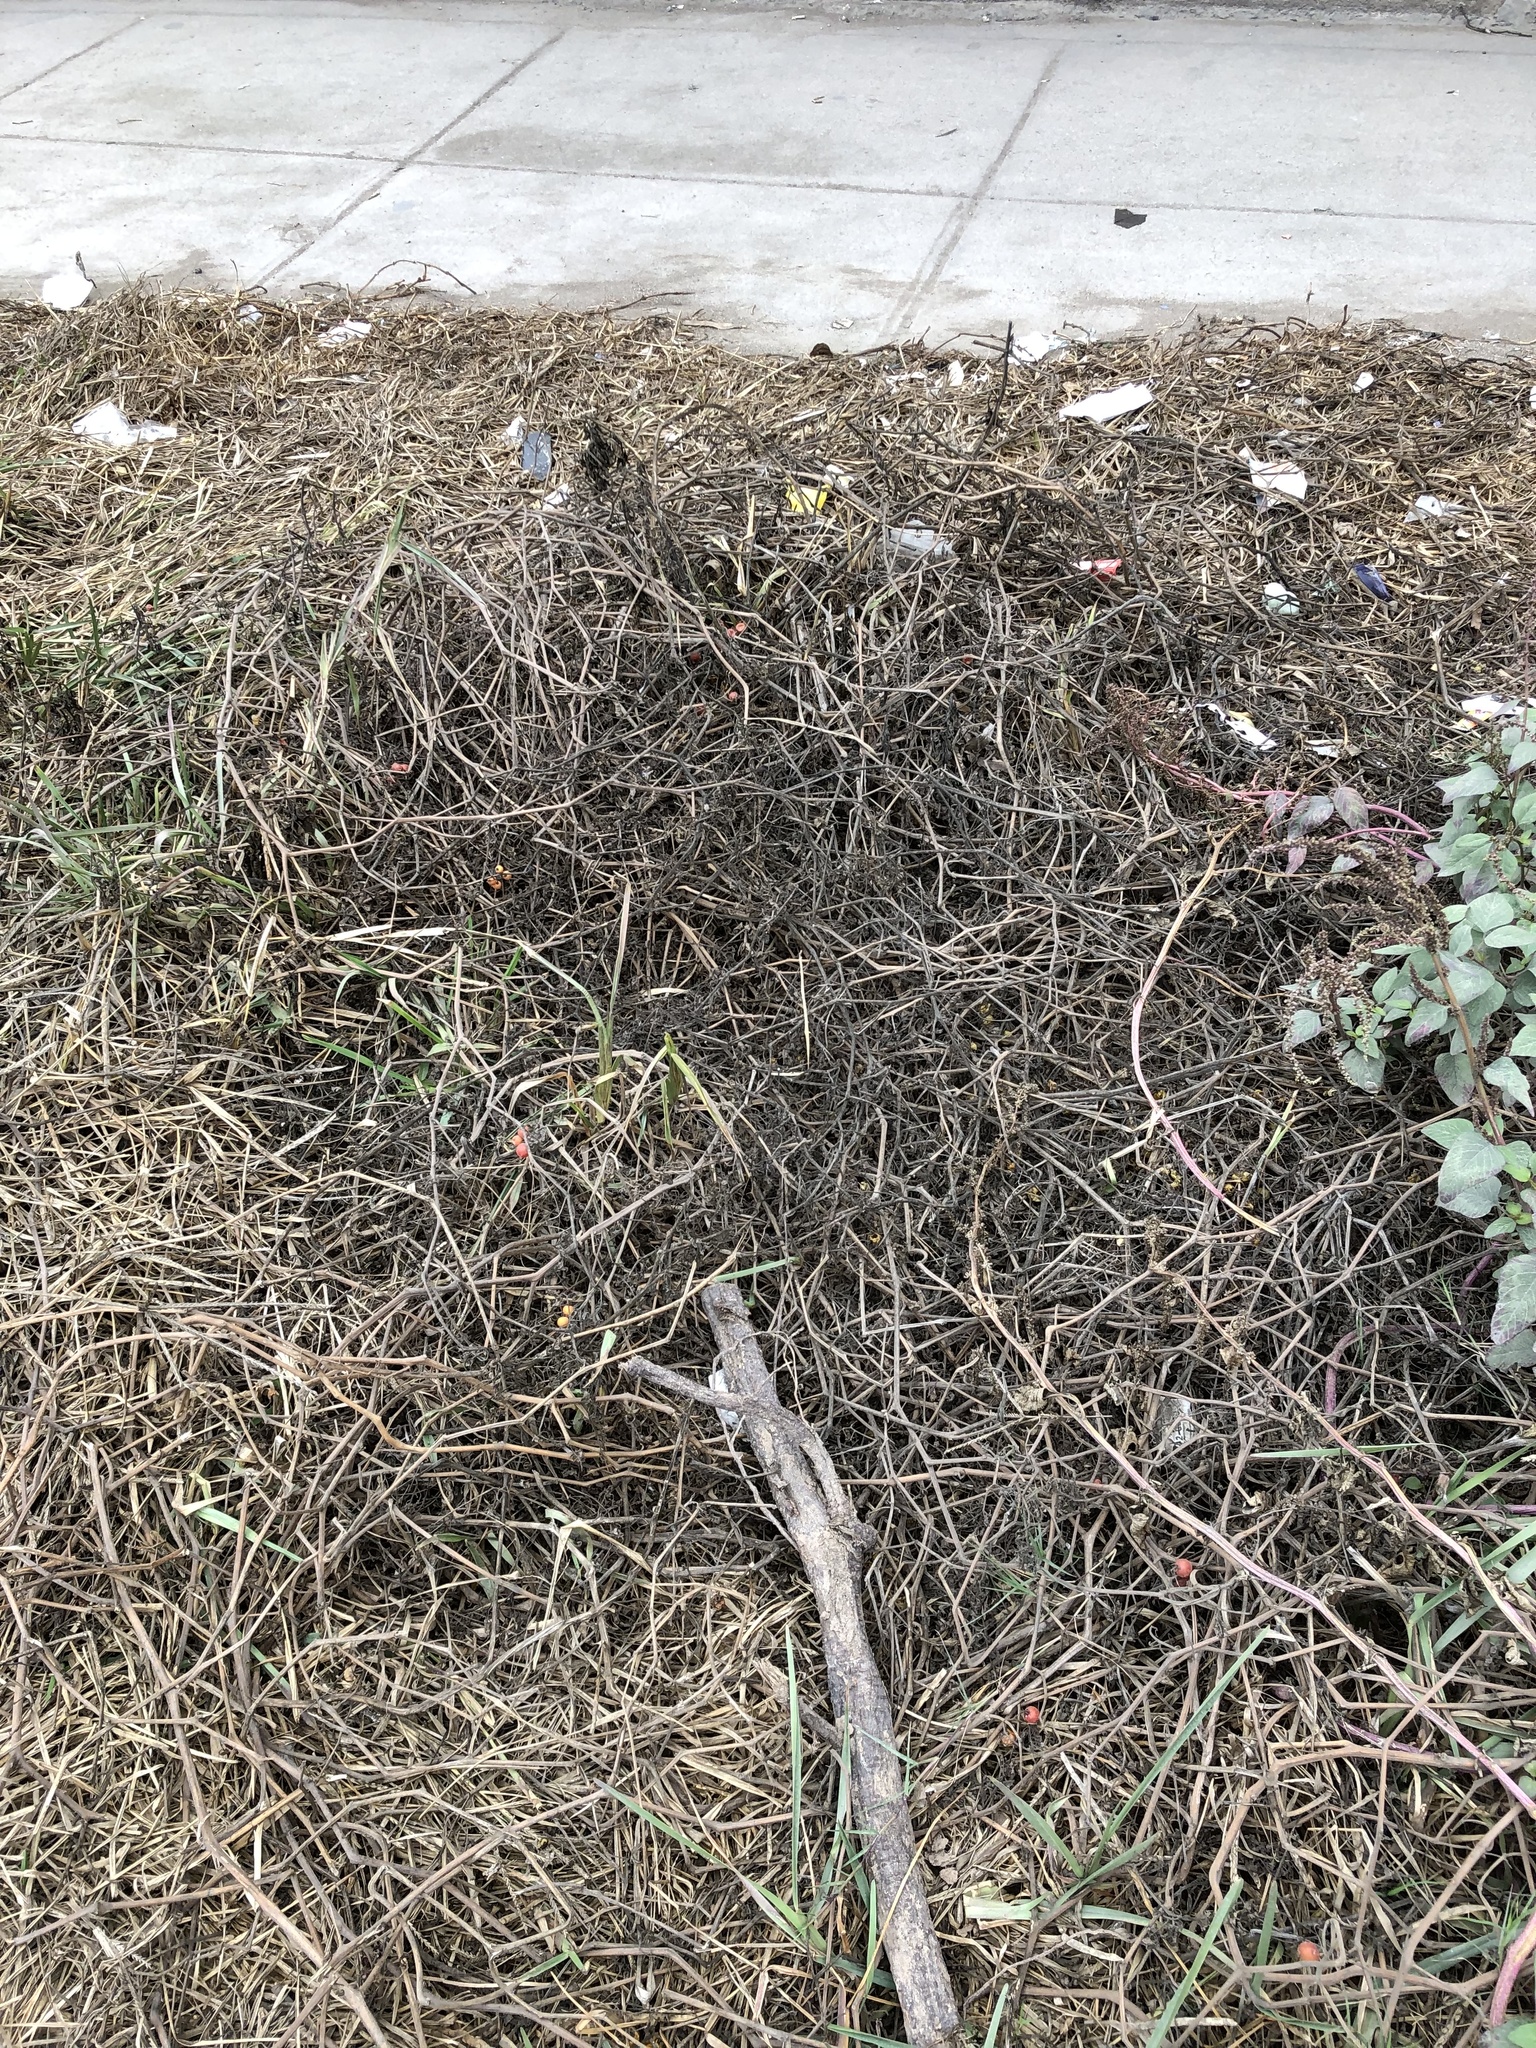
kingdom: Plantae
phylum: Tracheophyta
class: Magnoliopsida
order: Solanales
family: Solanaceae
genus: Solanum
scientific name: Solanum pimpinellifolium
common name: Currant-tomato
